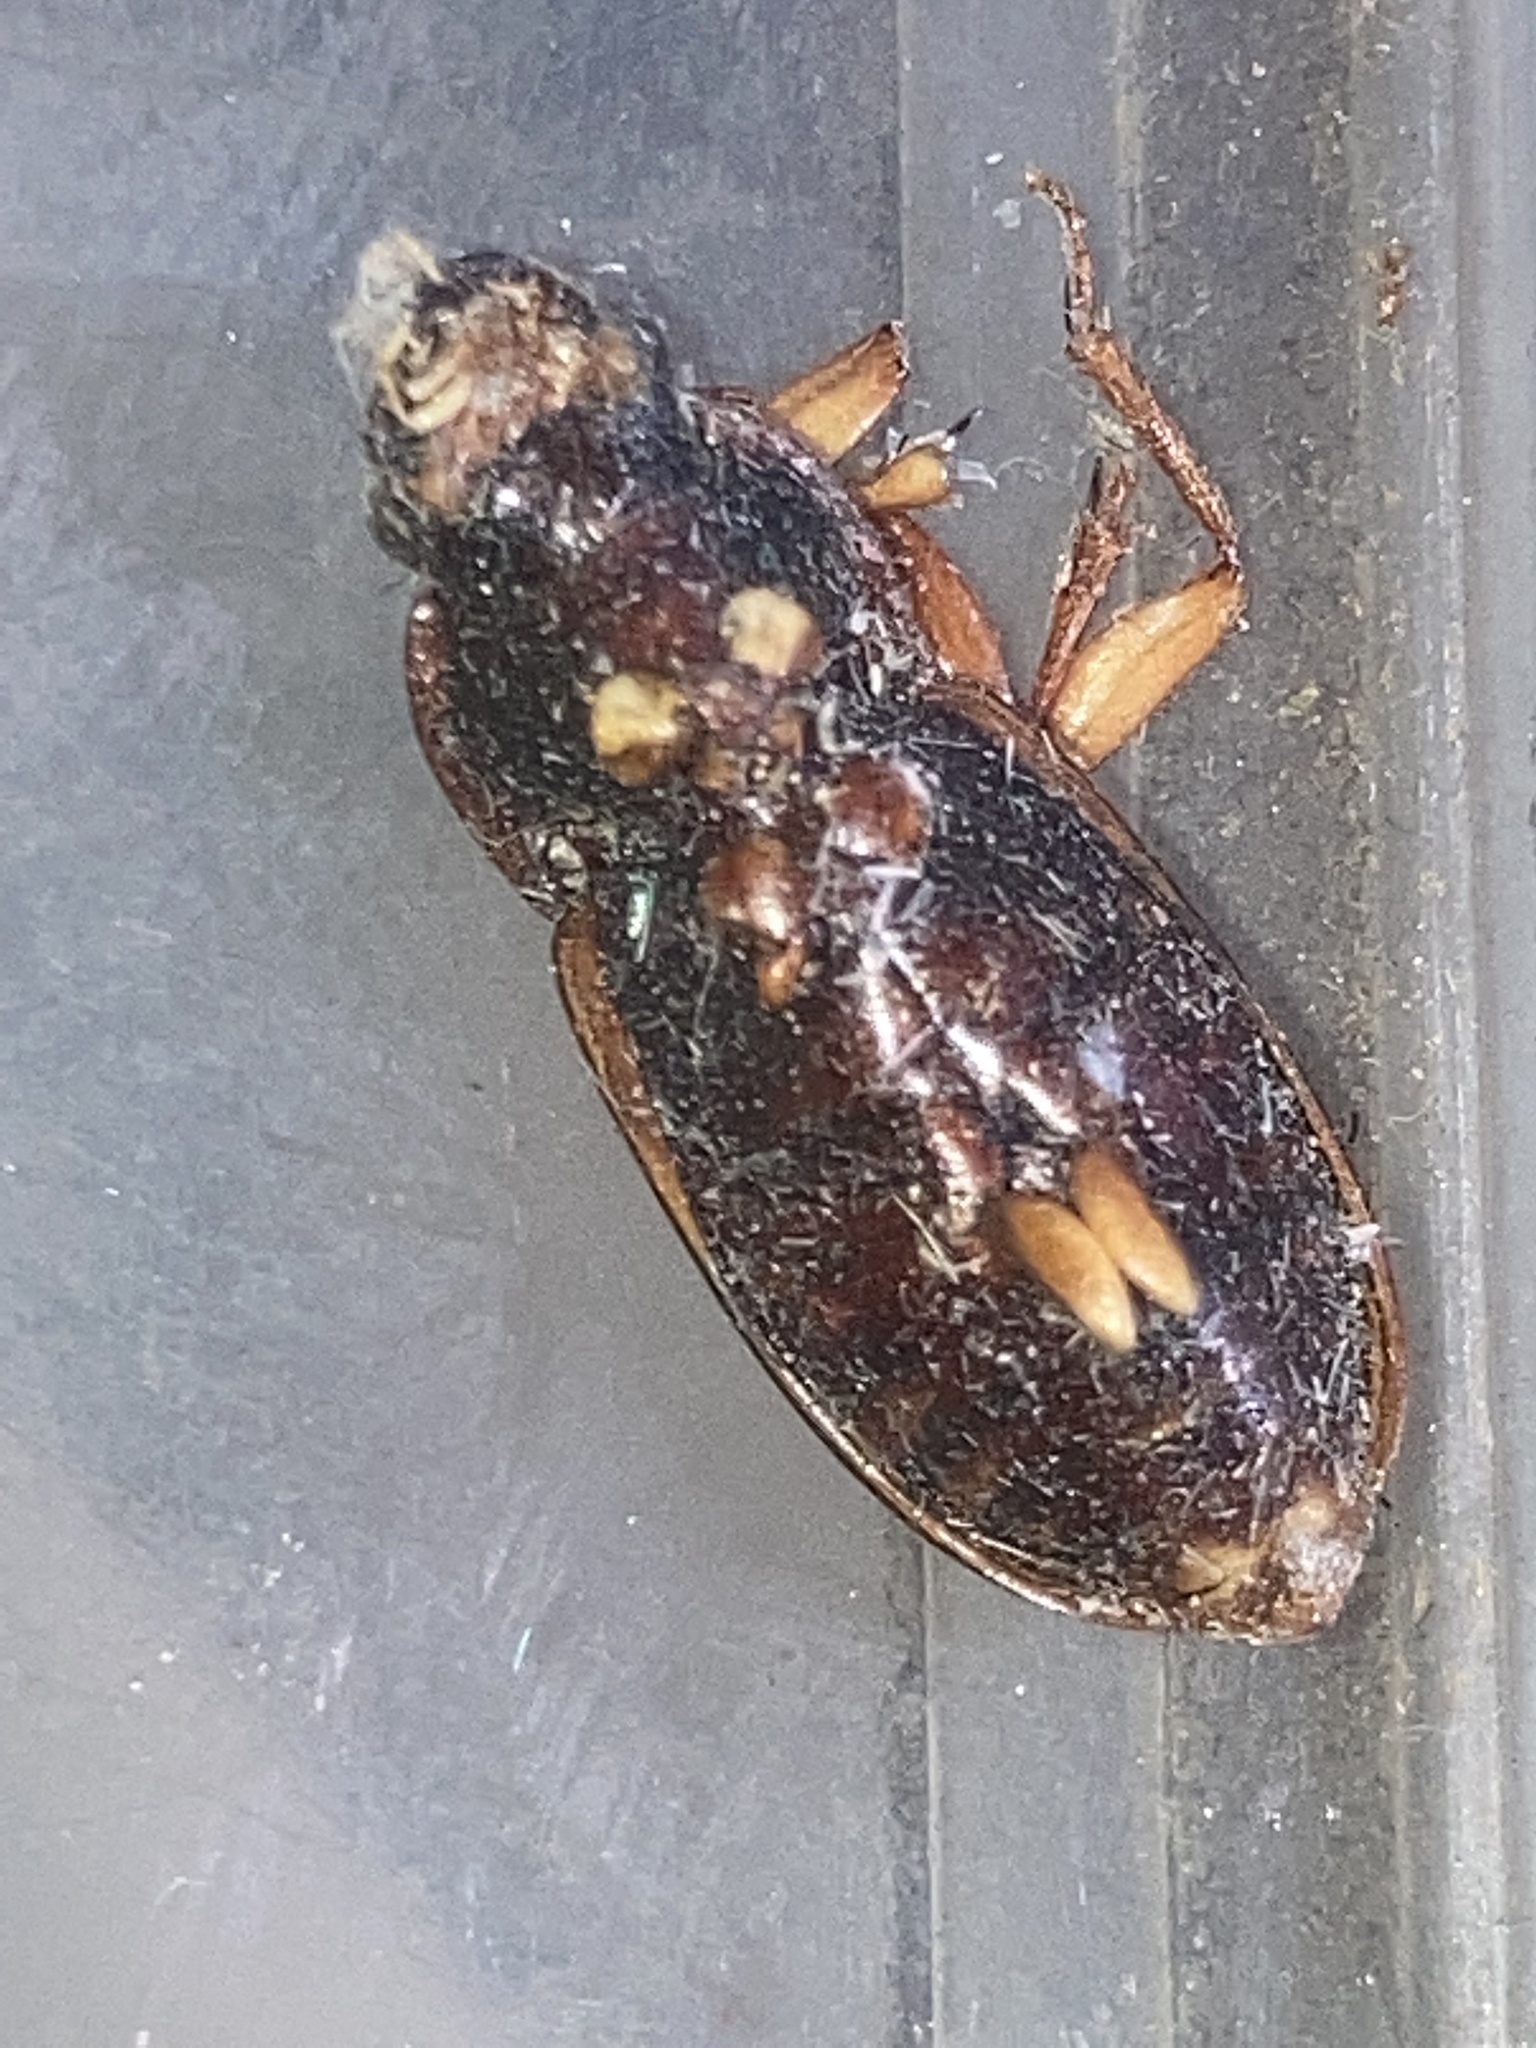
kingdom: Animalia
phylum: Arthropoda
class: Insecta
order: Coleoptera
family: Carabidae
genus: Harpalus
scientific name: Harpalus pensylvanicus
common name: Pennsylvania dingy ground beetle
